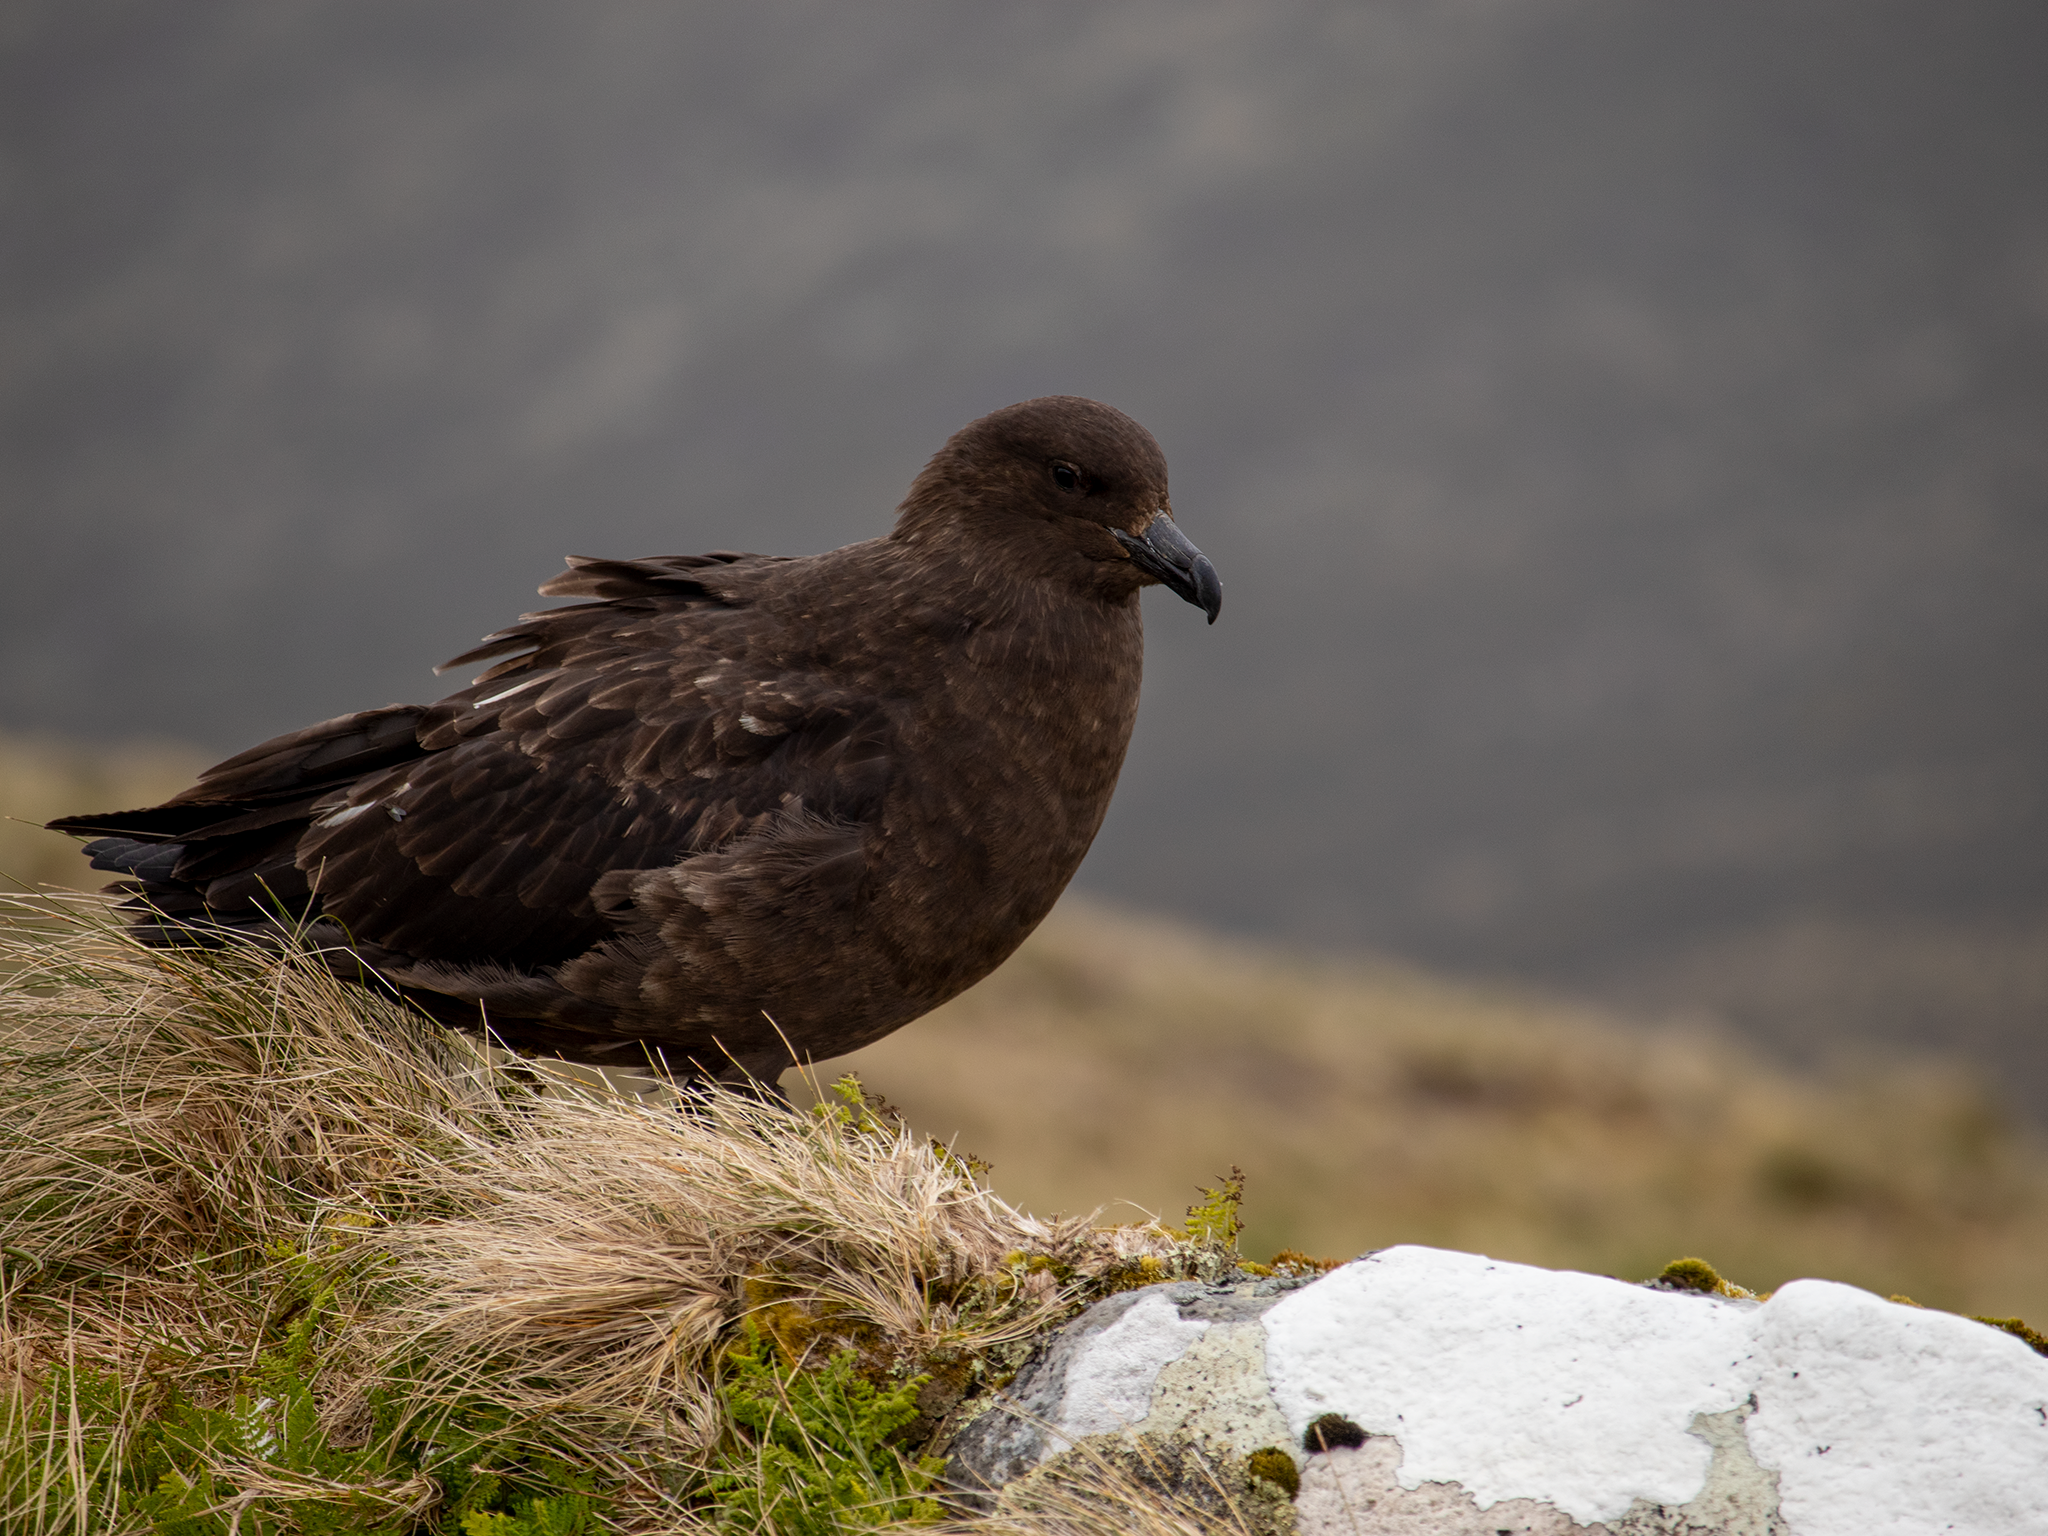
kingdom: Animalia
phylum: Chordata
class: Aves
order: Charadriiformes
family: Stercorariidae
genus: Stercorarius
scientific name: Stercorarius antarcticus
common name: Brown skua
